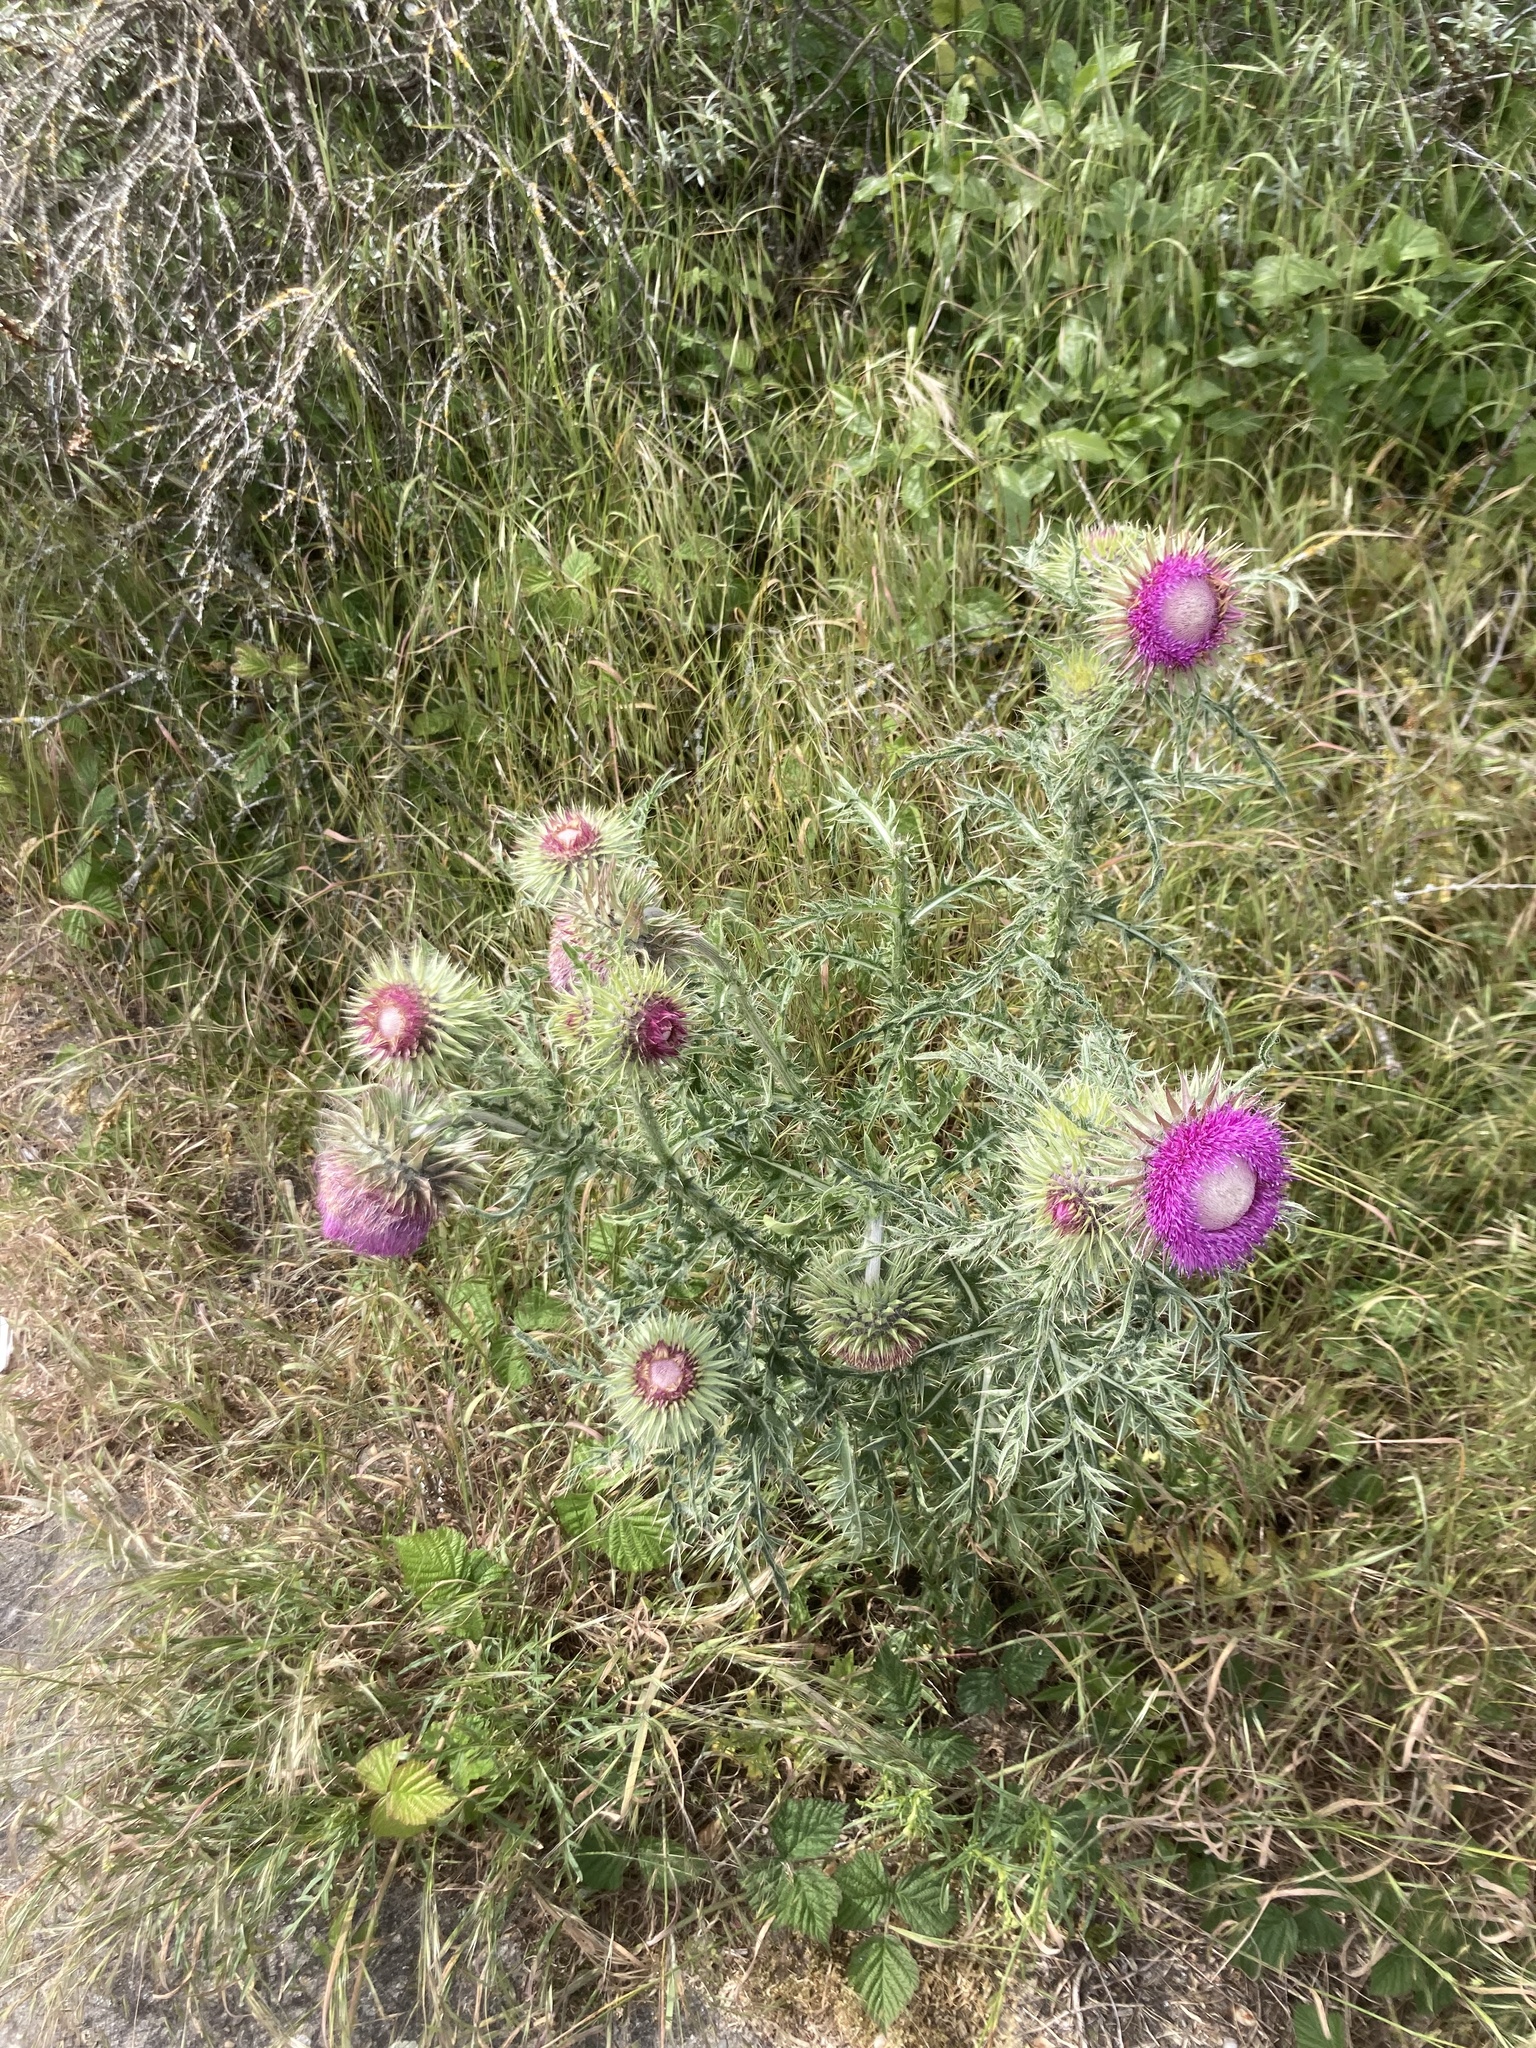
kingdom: Plantae
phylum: Tracheophyta
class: Magnoliopsida
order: Asterales
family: Asteraceae
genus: Carduus
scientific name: Carduus nutans
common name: Musk thistle
